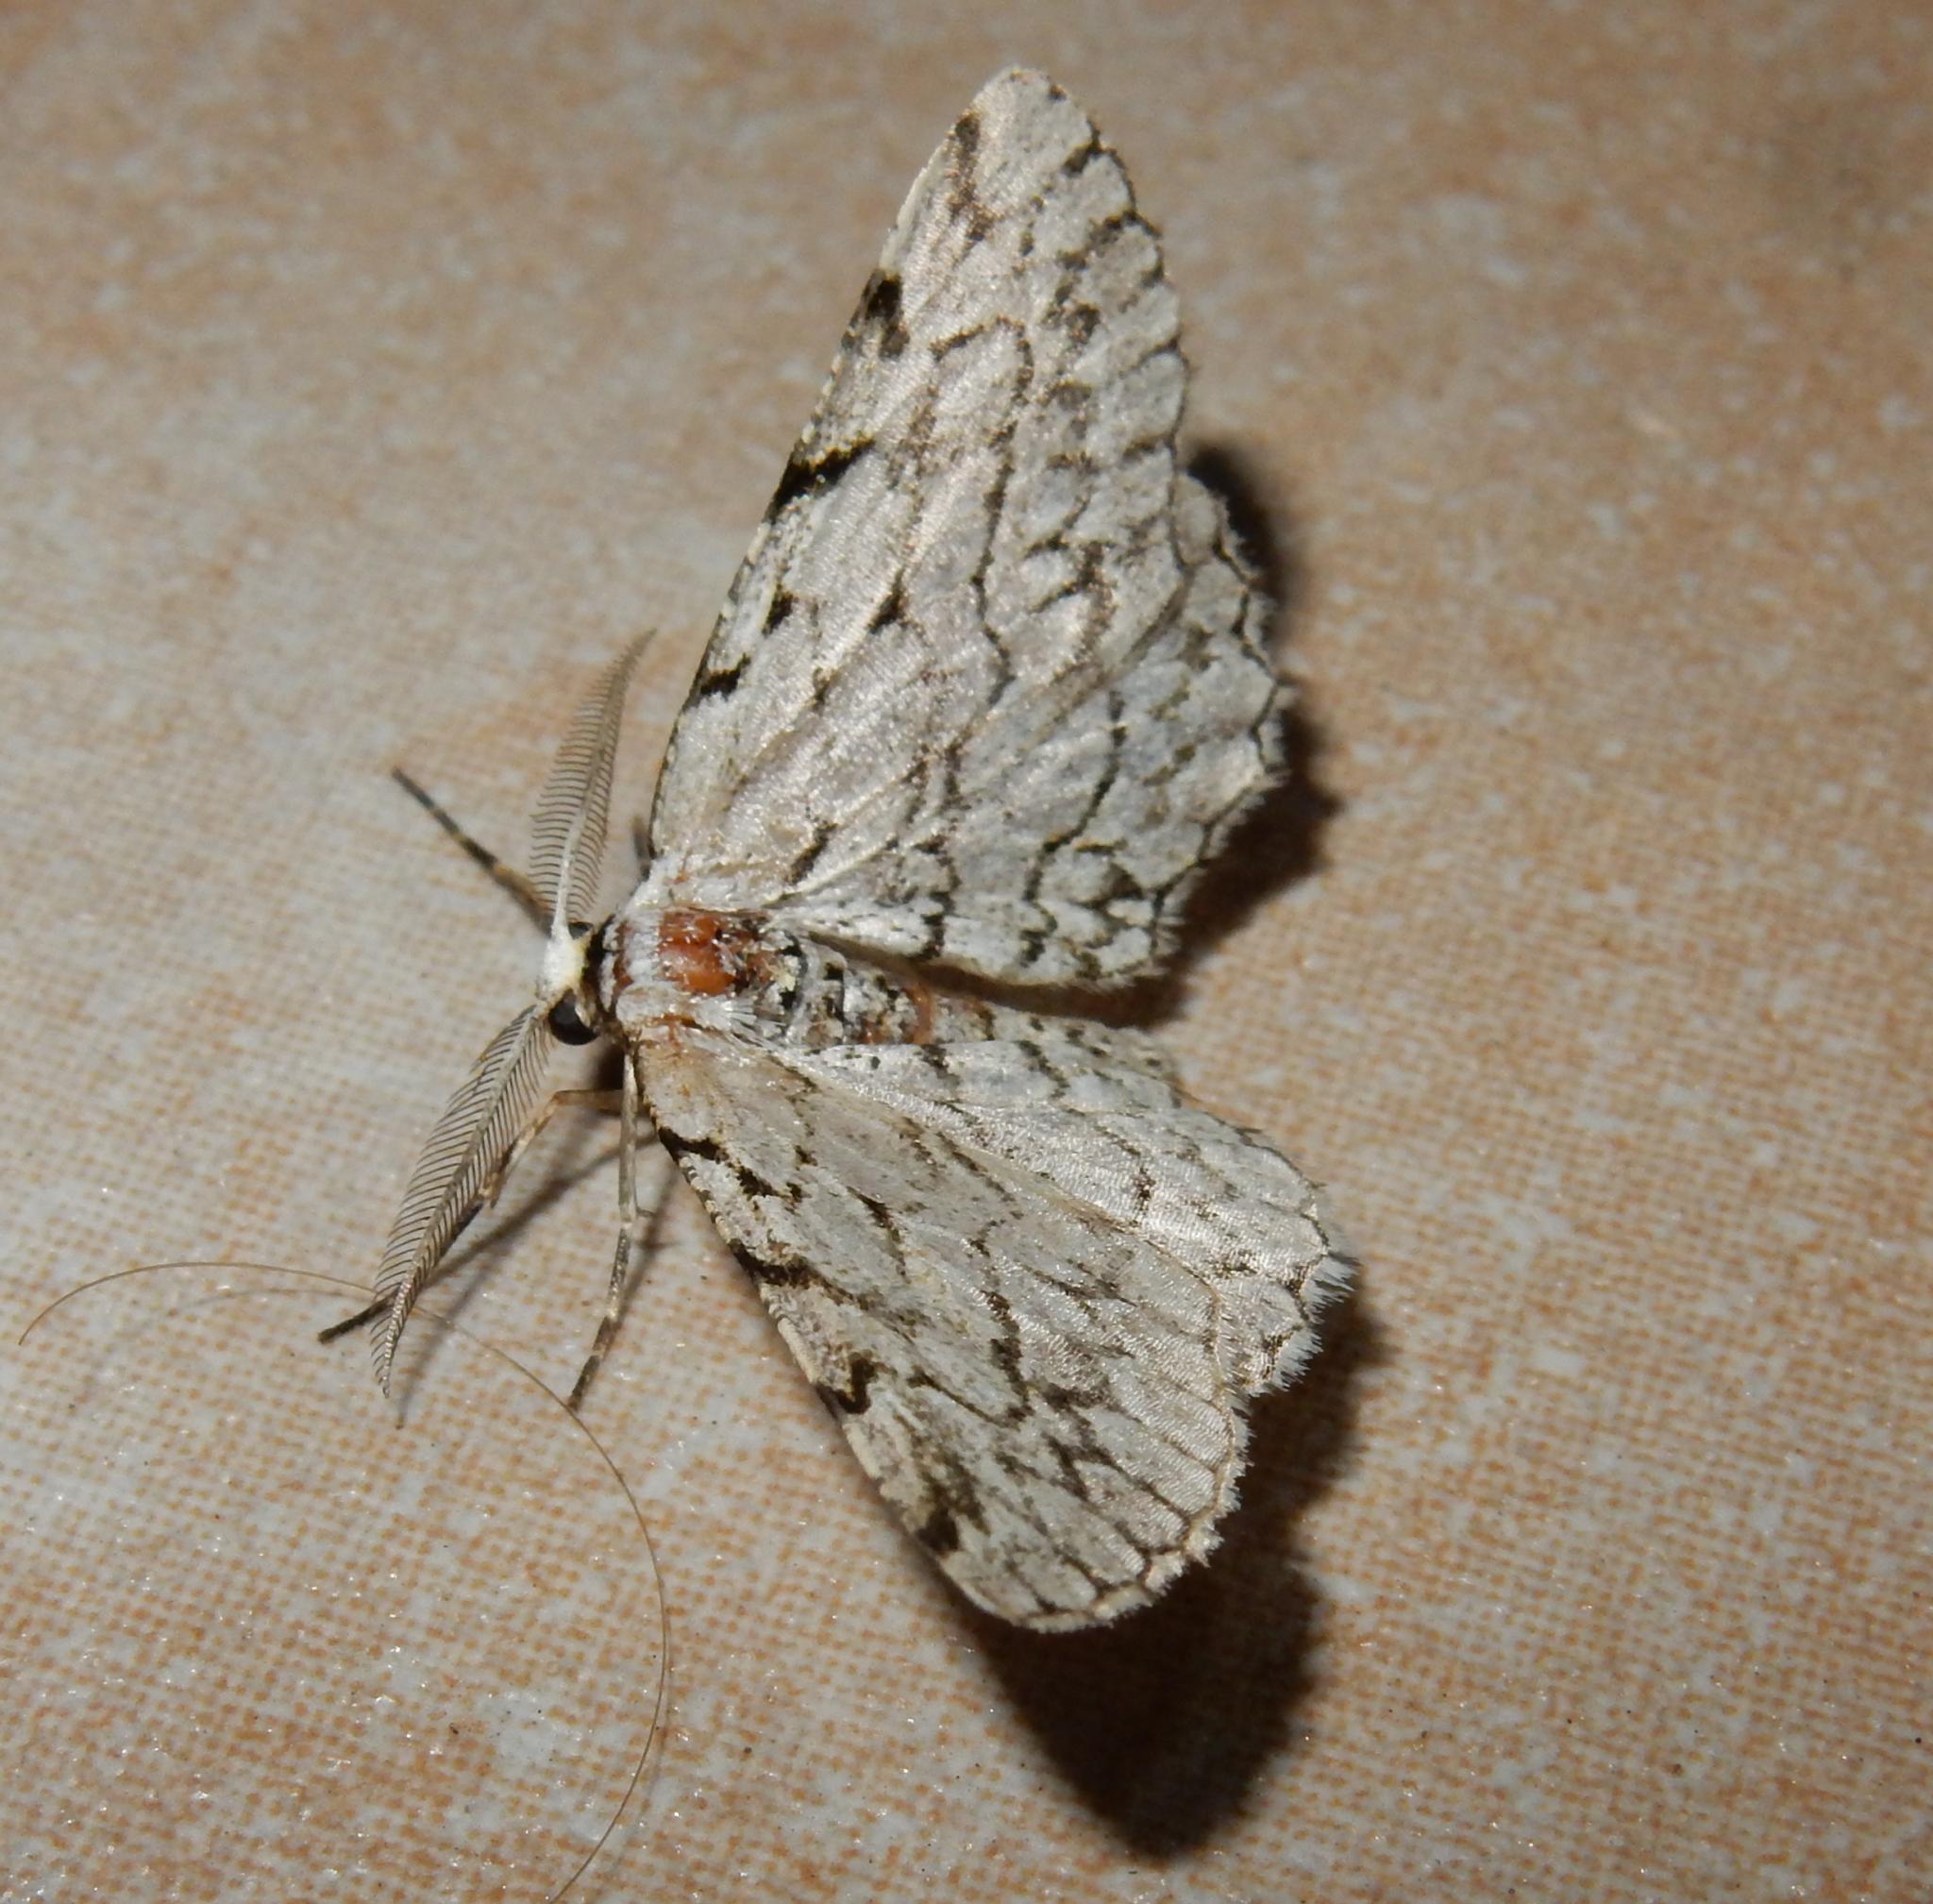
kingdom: Animalia
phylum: Arthropoda
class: Insecta
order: Lepidoptera
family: Geometridae
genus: Eulycia
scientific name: Eulycia accentuata
